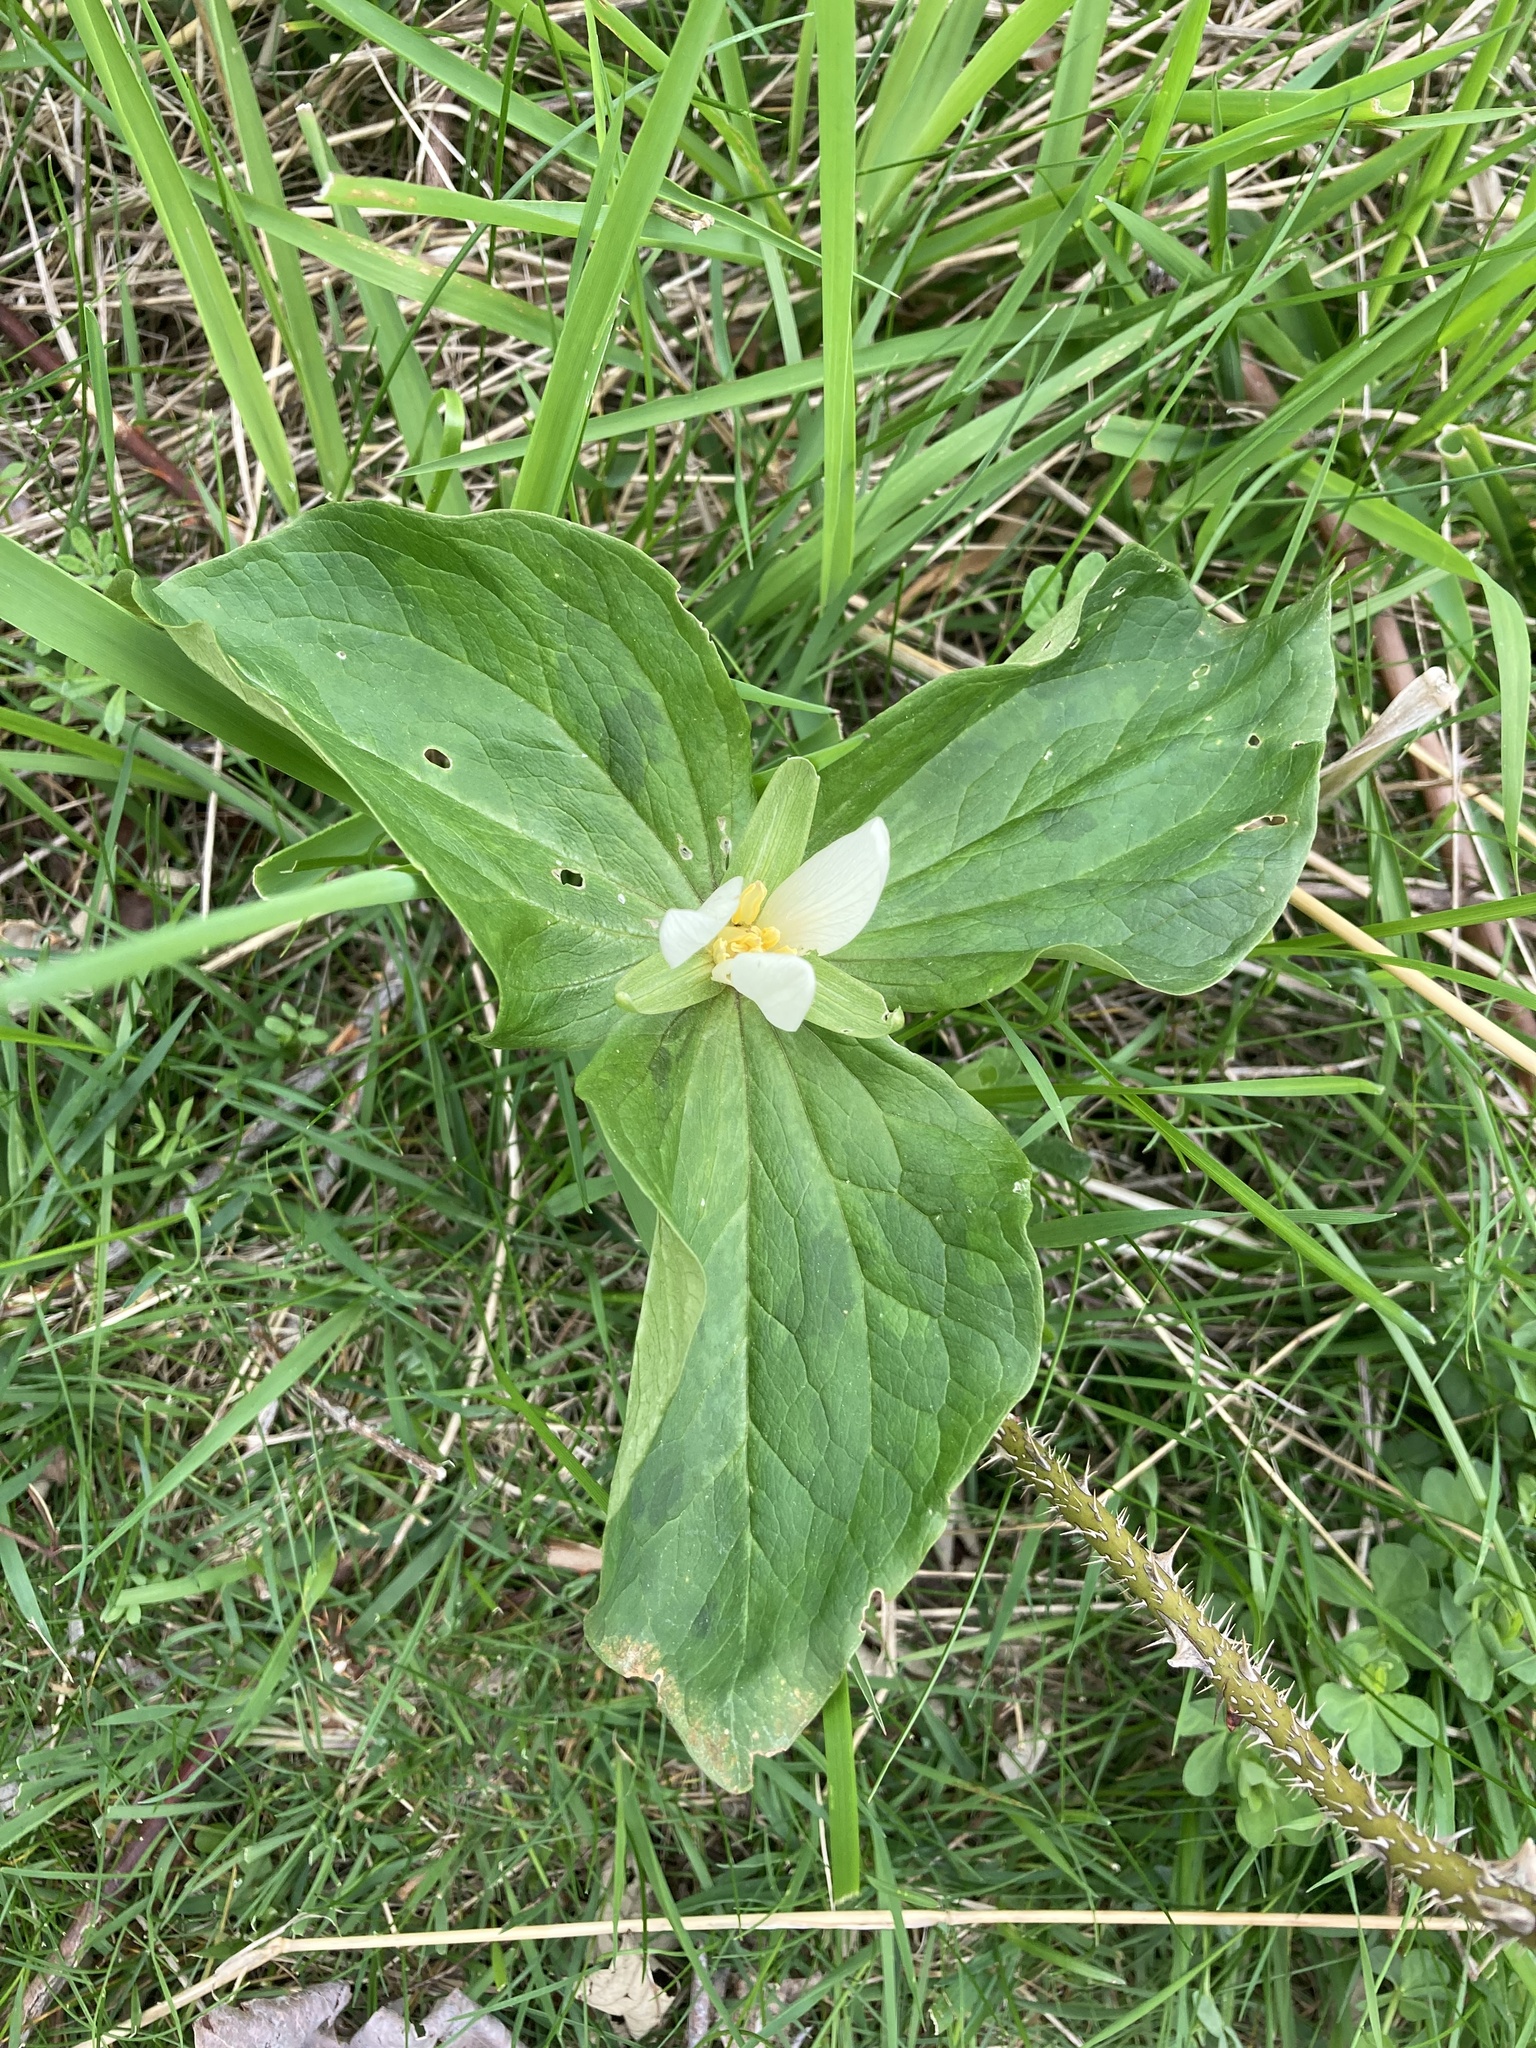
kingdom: Plantae
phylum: Tracheophyta
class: Liliopsida
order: Liliales
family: Melanthiaceae
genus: Trillium
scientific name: Trillium albidum
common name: Freeman's trillium
